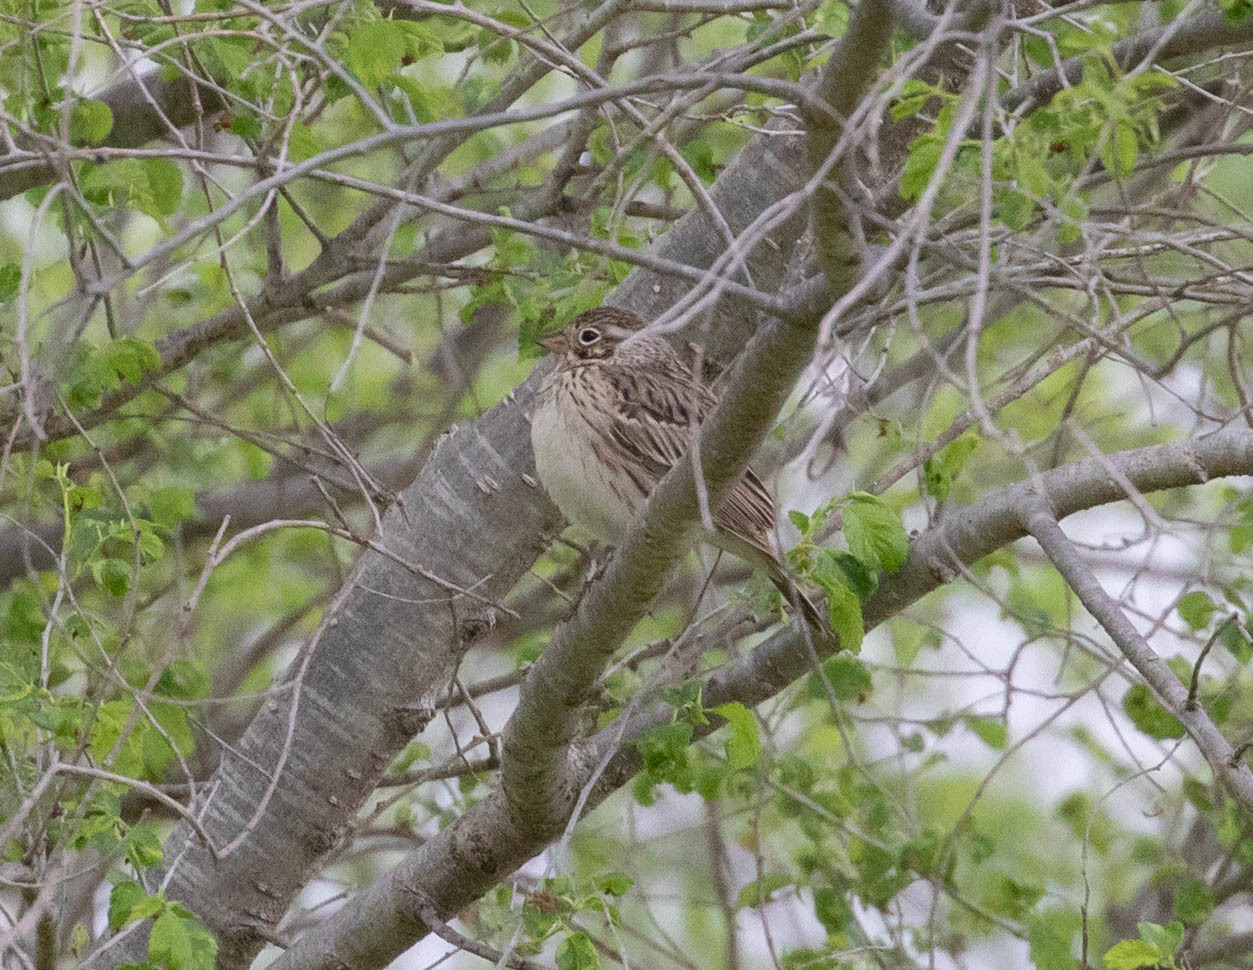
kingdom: Animalia
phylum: Chordata
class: Aves
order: Passeriformes
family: Passerellidae
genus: Pooecetes
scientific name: Pooecetes gramineus
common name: Vesper sparrow
